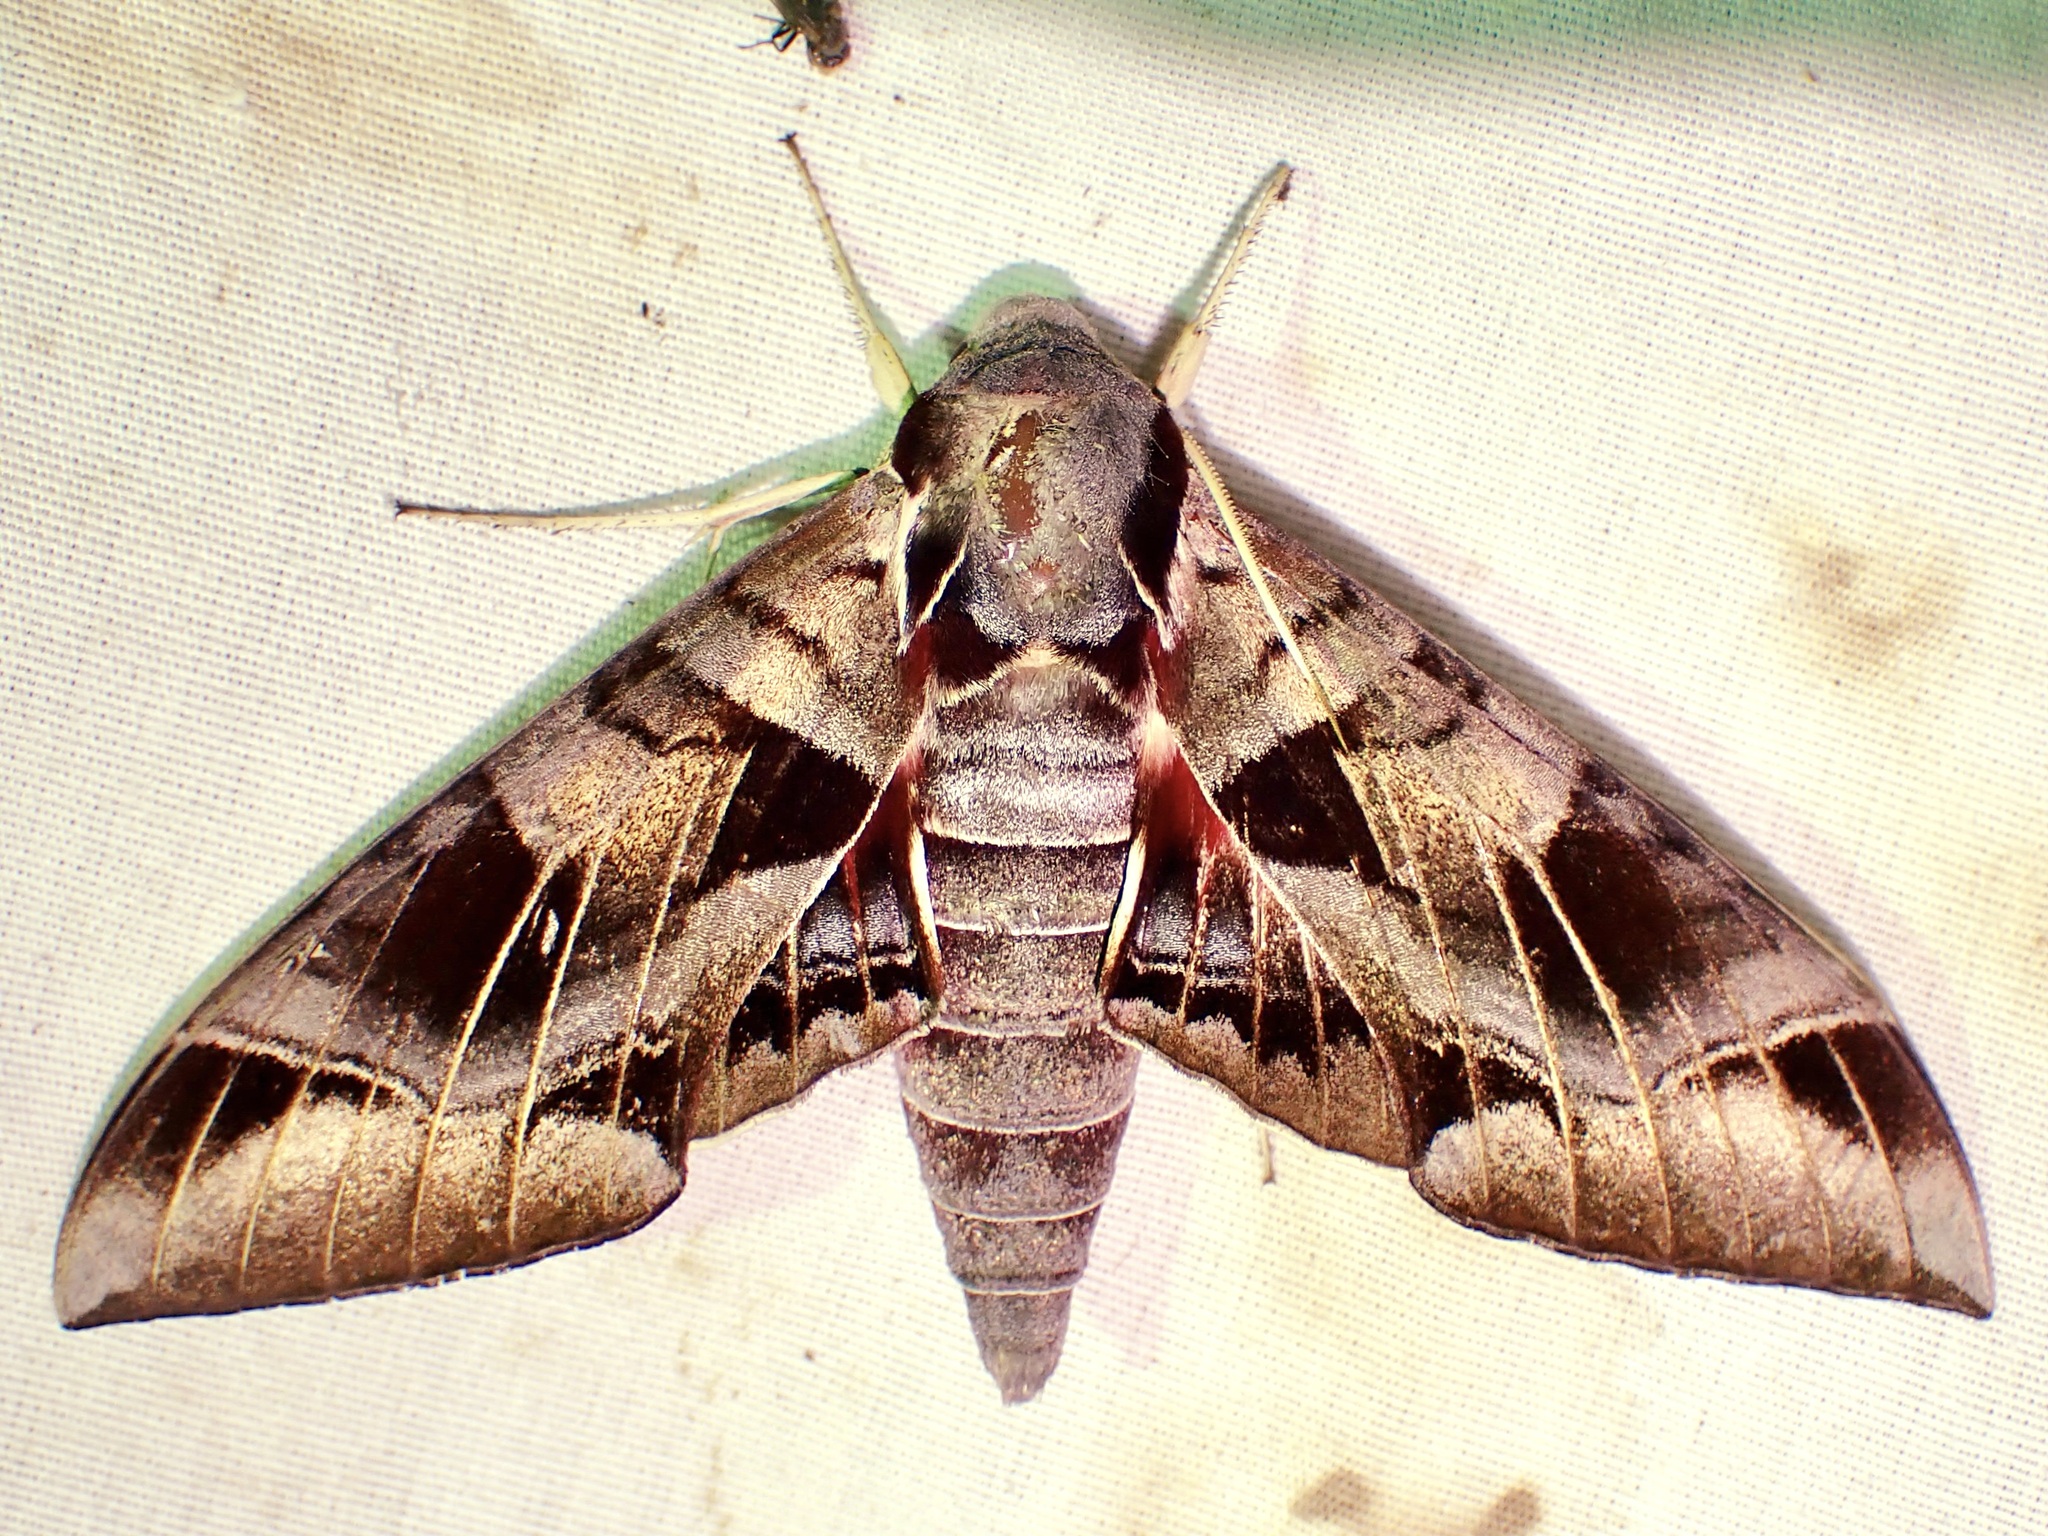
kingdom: Animalia
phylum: Arthropoda
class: Insecta
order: Lepidoptera
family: Sphingidae
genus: Eumorpha
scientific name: Eumorpha typhon
